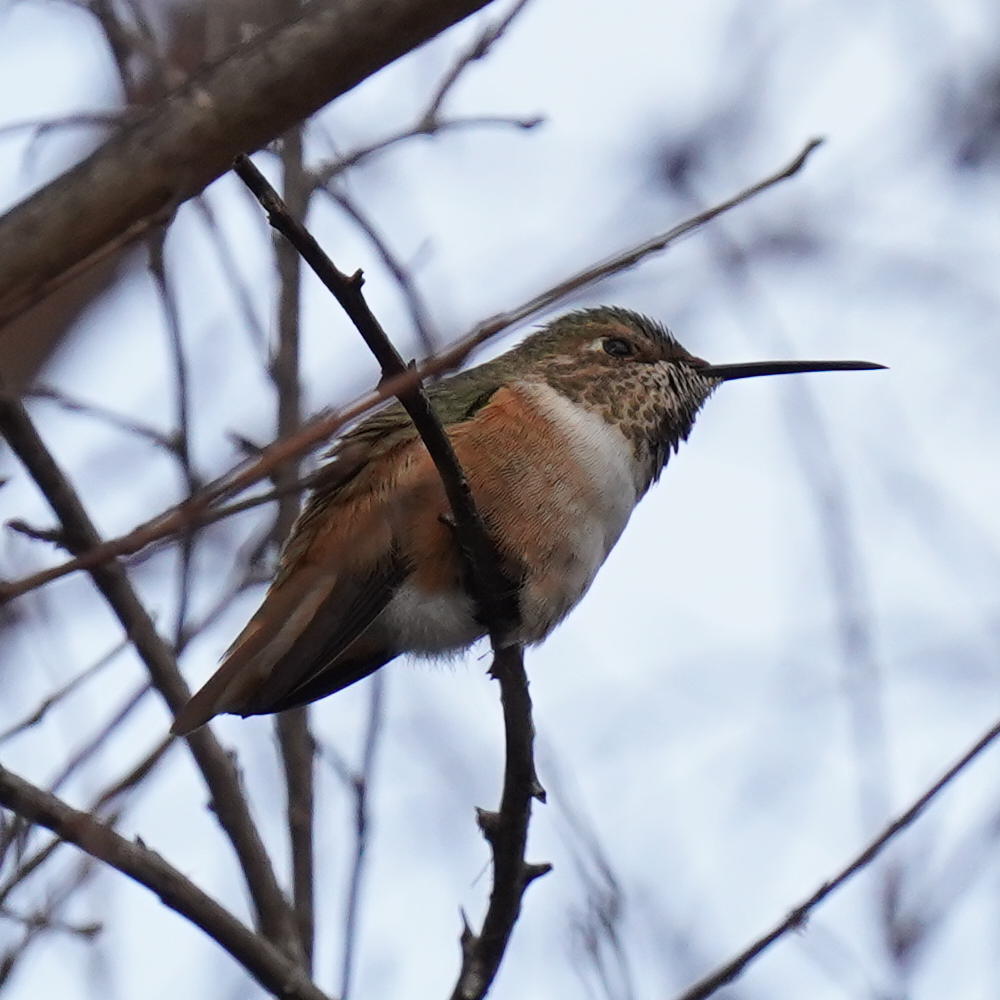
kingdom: Animalia
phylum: Chordata
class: Aves
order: Apodiformes
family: Trochilidae
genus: Selasphorus
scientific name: Selasphorus sasin
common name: Allen's hummingbird
